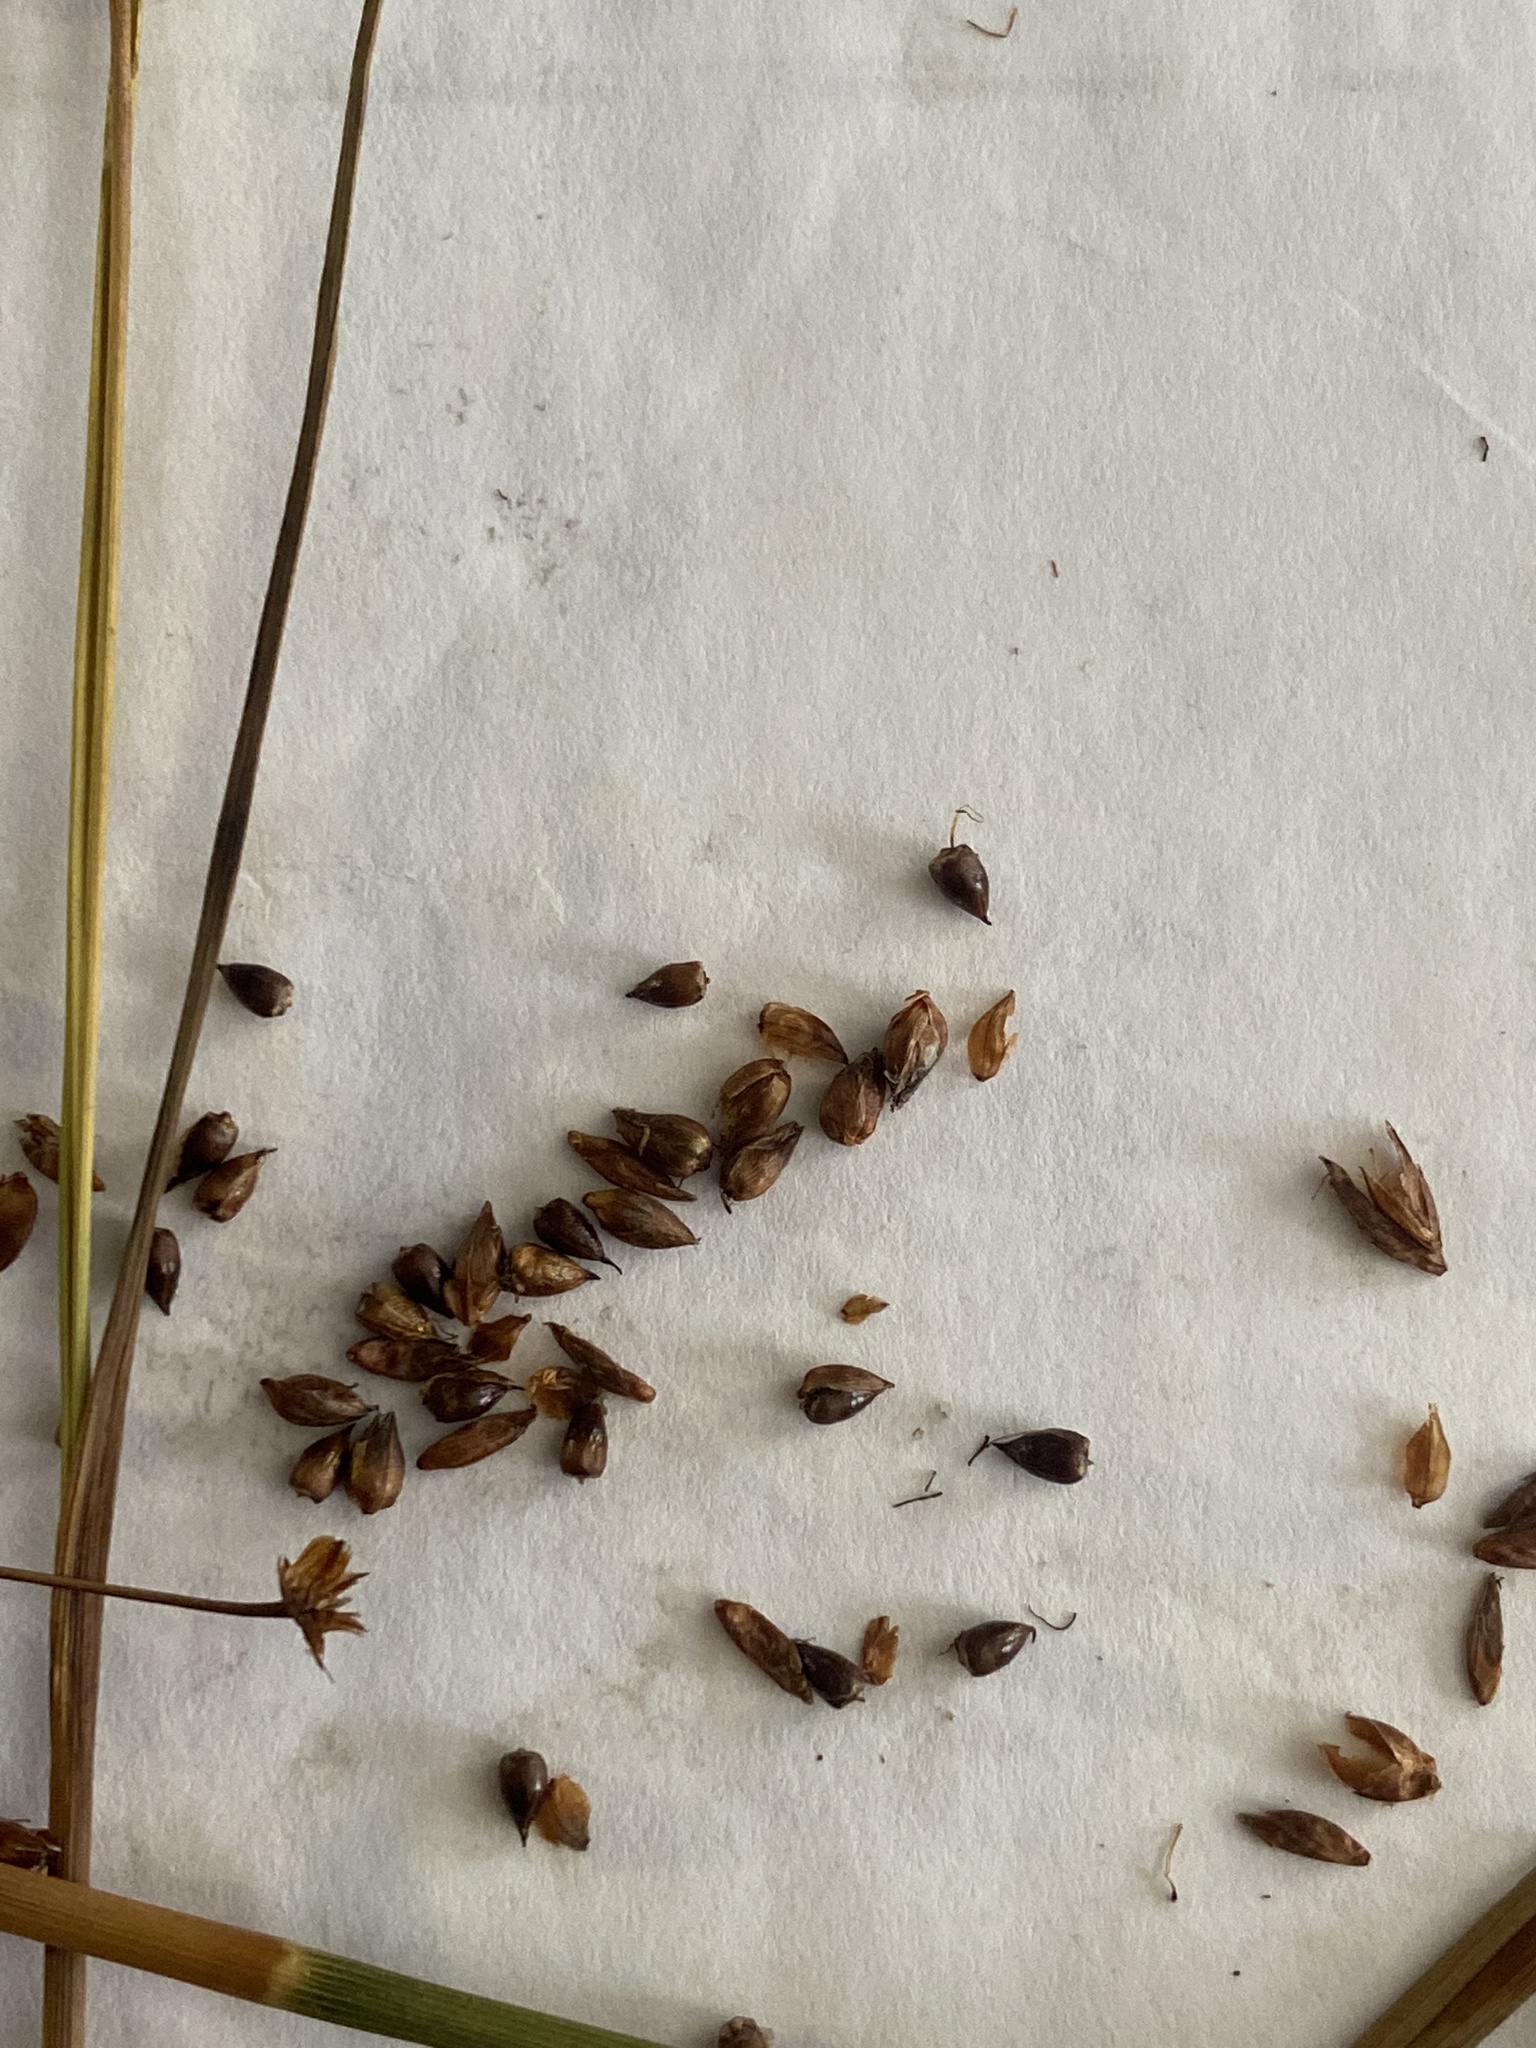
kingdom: Plantae
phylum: Tracheophyta
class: Liliopsida
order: Poales
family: Cyperaceae
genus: Cladium
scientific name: Cladium mariscoides
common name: Smooth sawgrass
